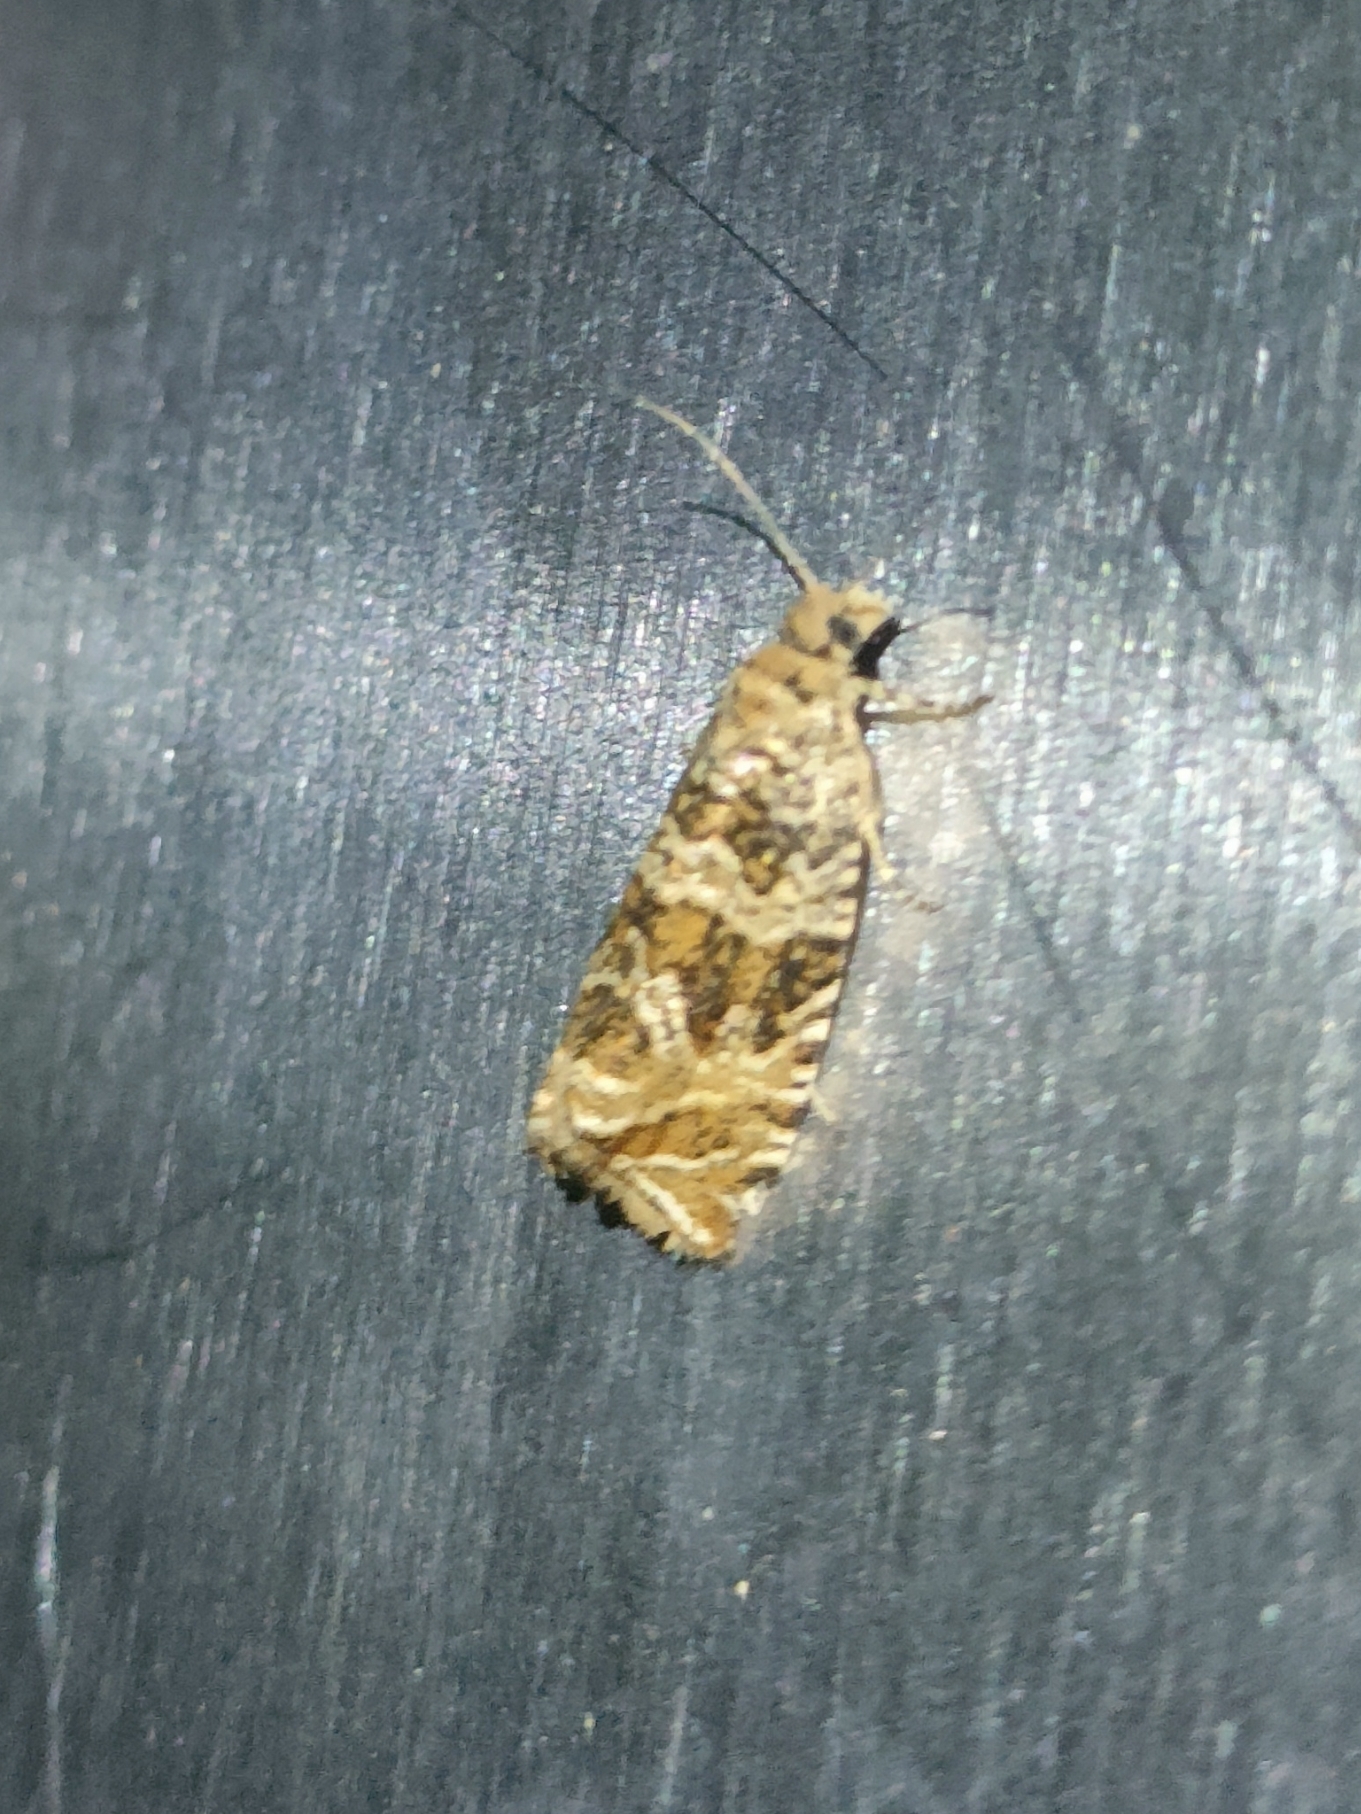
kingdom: Animalia
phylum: Arthropoda
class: Insecta
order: Lepidoptera
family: Tortricidae
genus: Syricoris
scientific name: Syricoris rivulana
